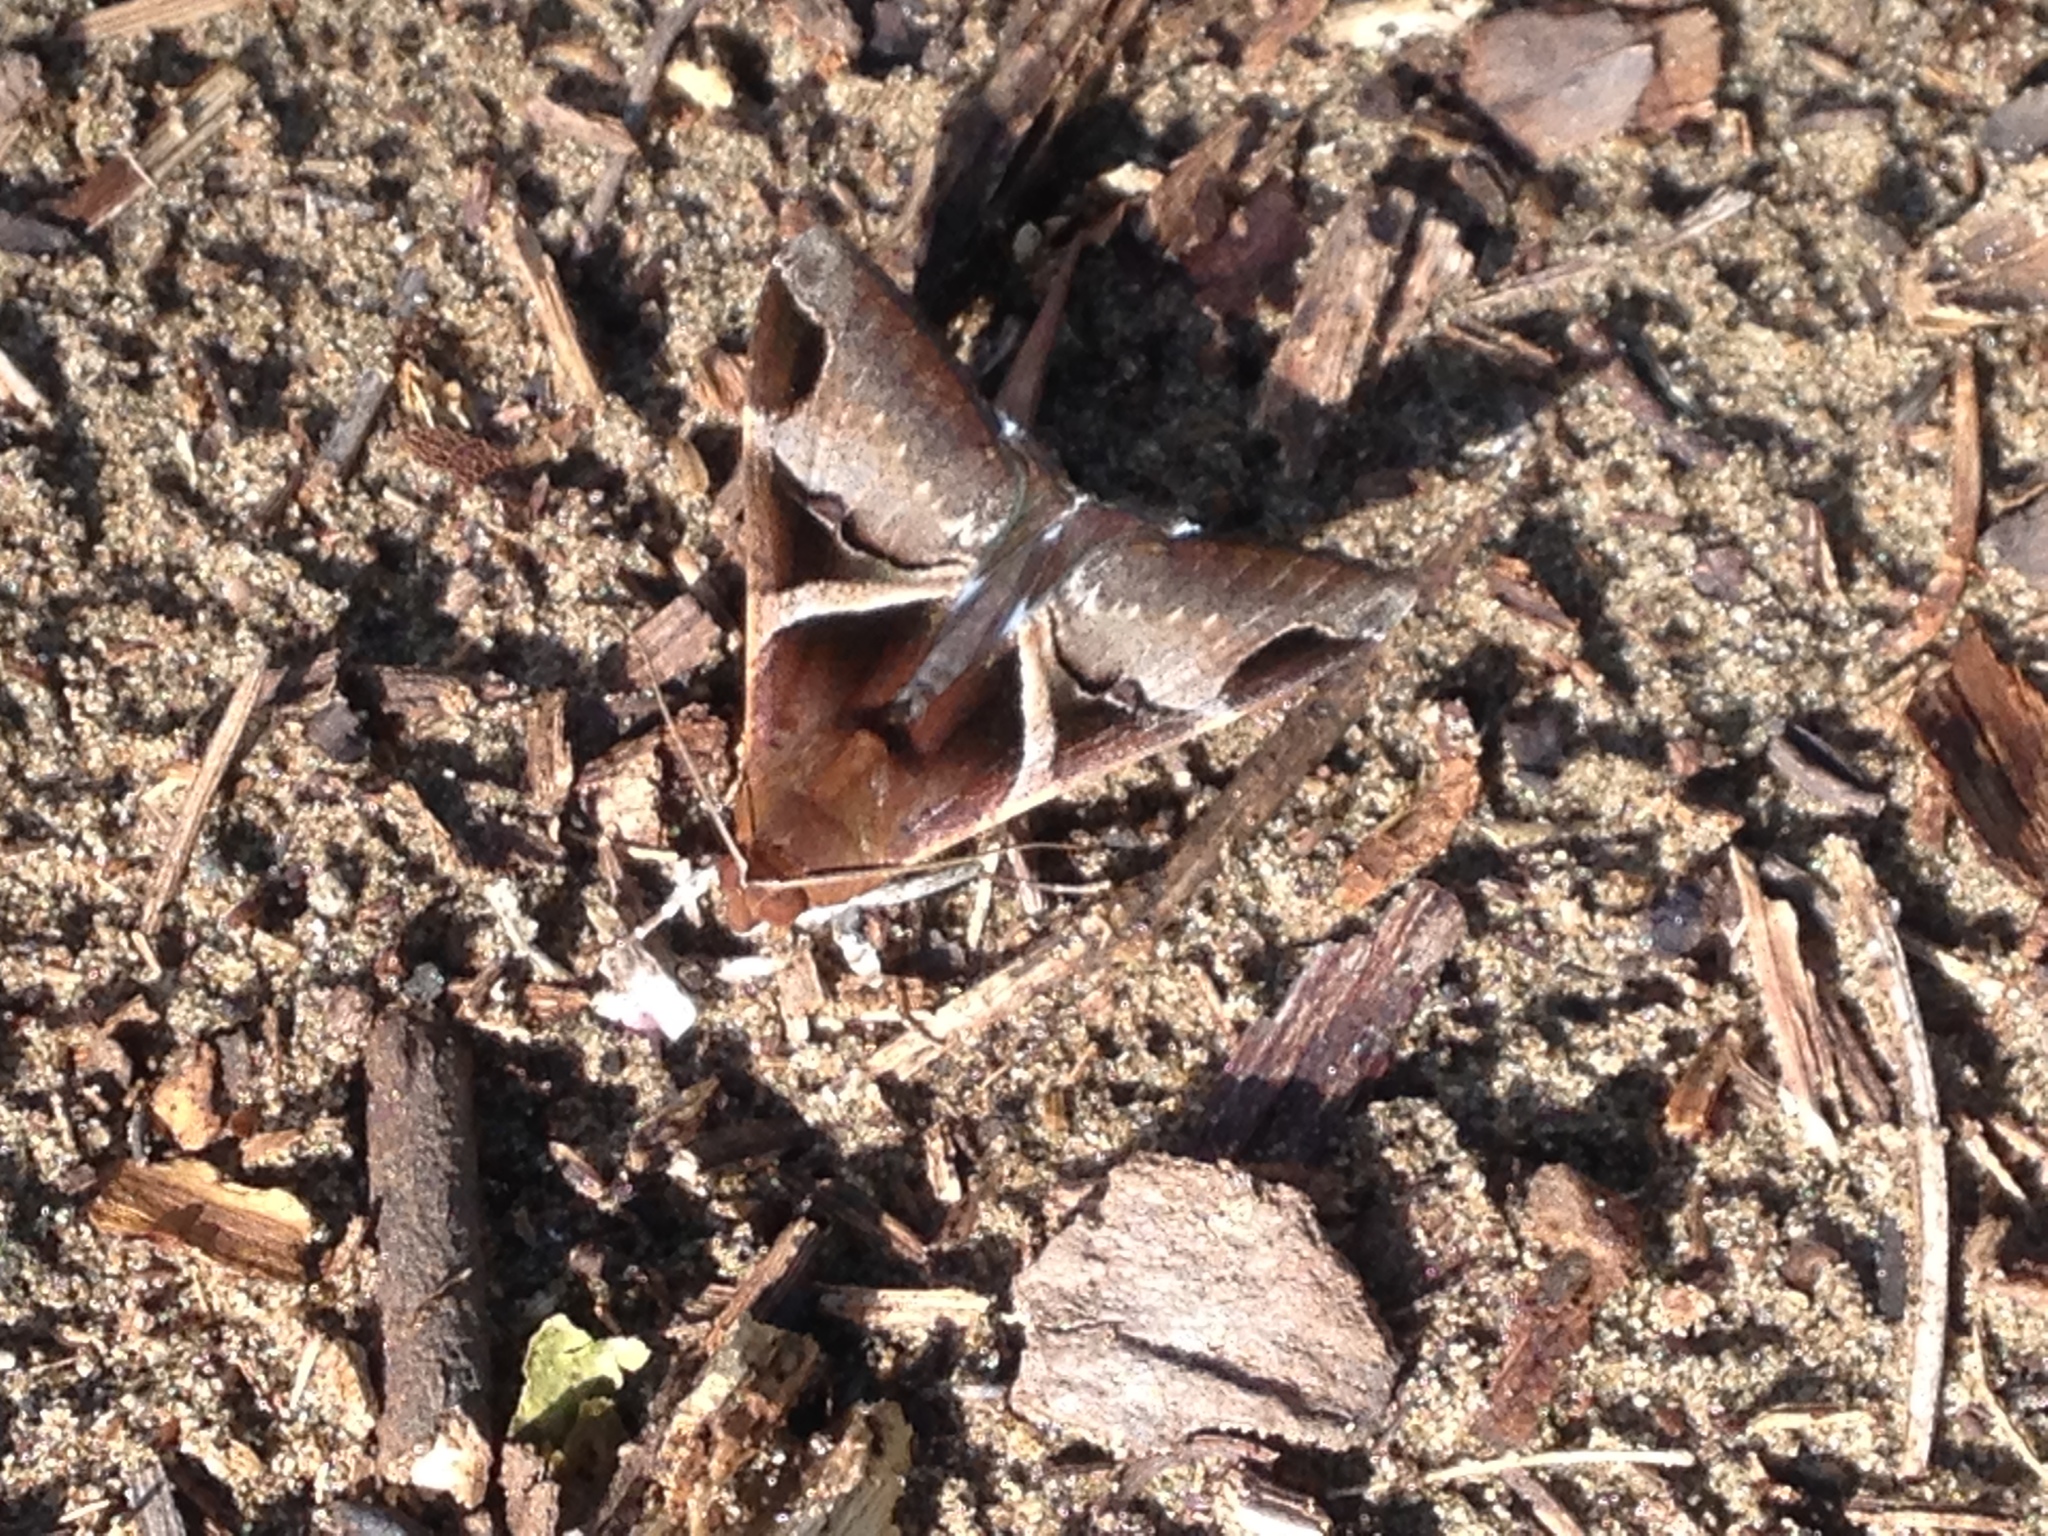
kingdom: Animalia
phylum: Arthropoda
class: Insecta
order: Lepidoptera
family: Erebidae
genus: Melipotis
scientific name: Melipotis fasciolaris
